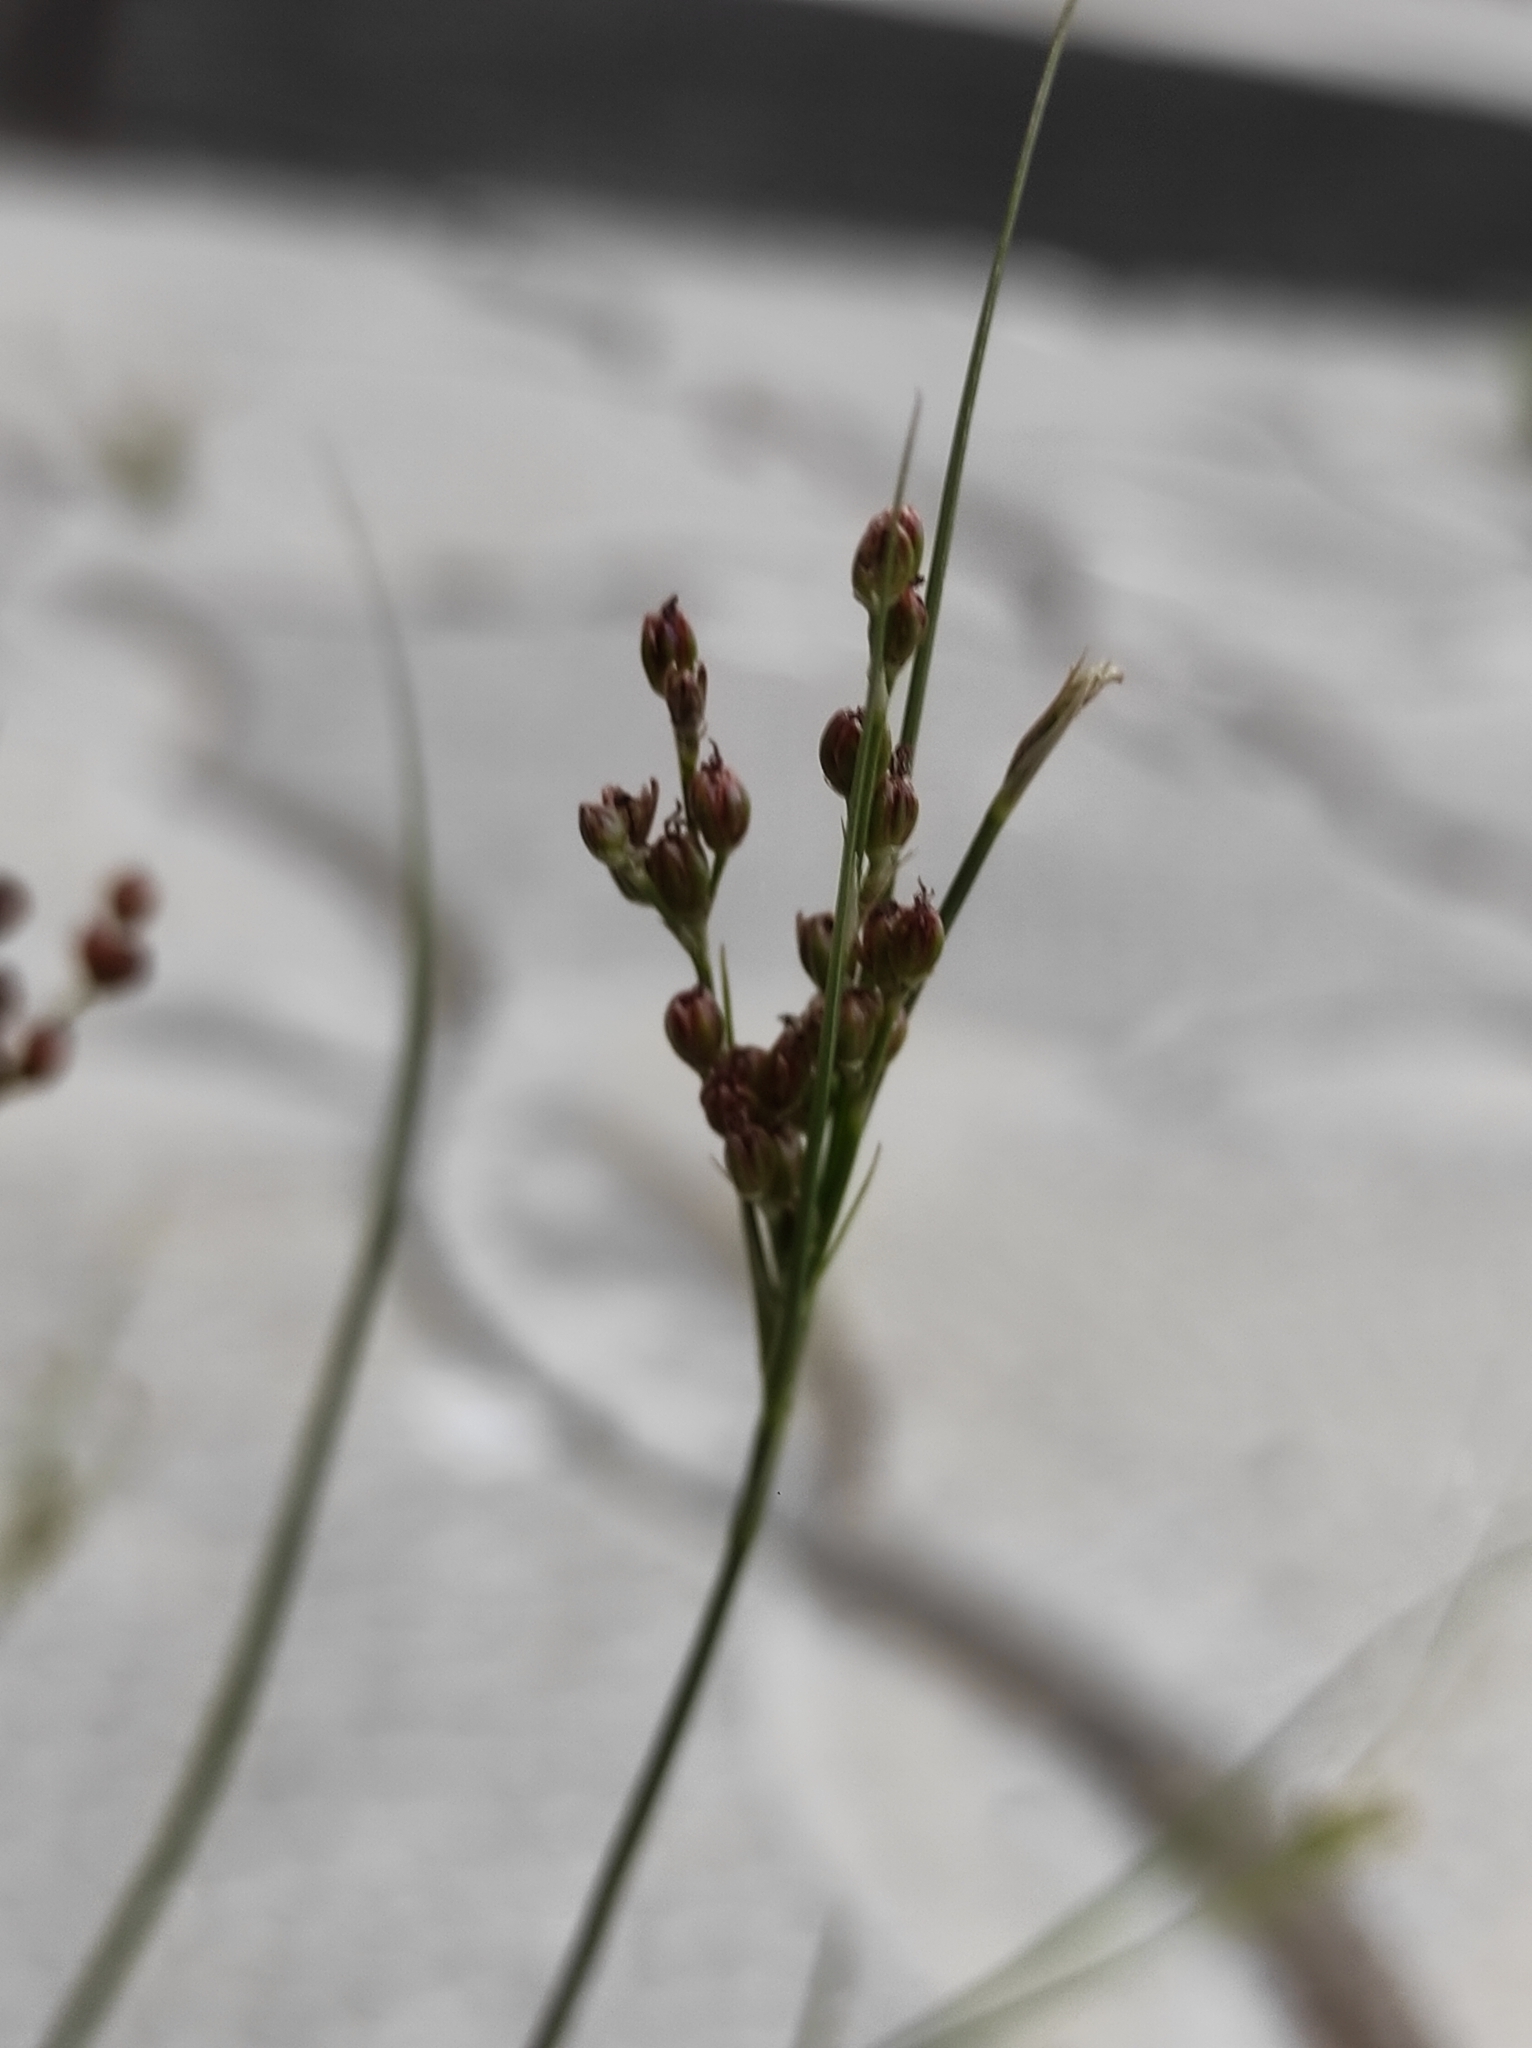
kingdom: Plantae
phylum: Tracheophyta
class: Liliopsida
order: Poales
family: Juncaceae
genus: Juncus
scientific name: Juncus compressus
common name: Round-fruited rush
